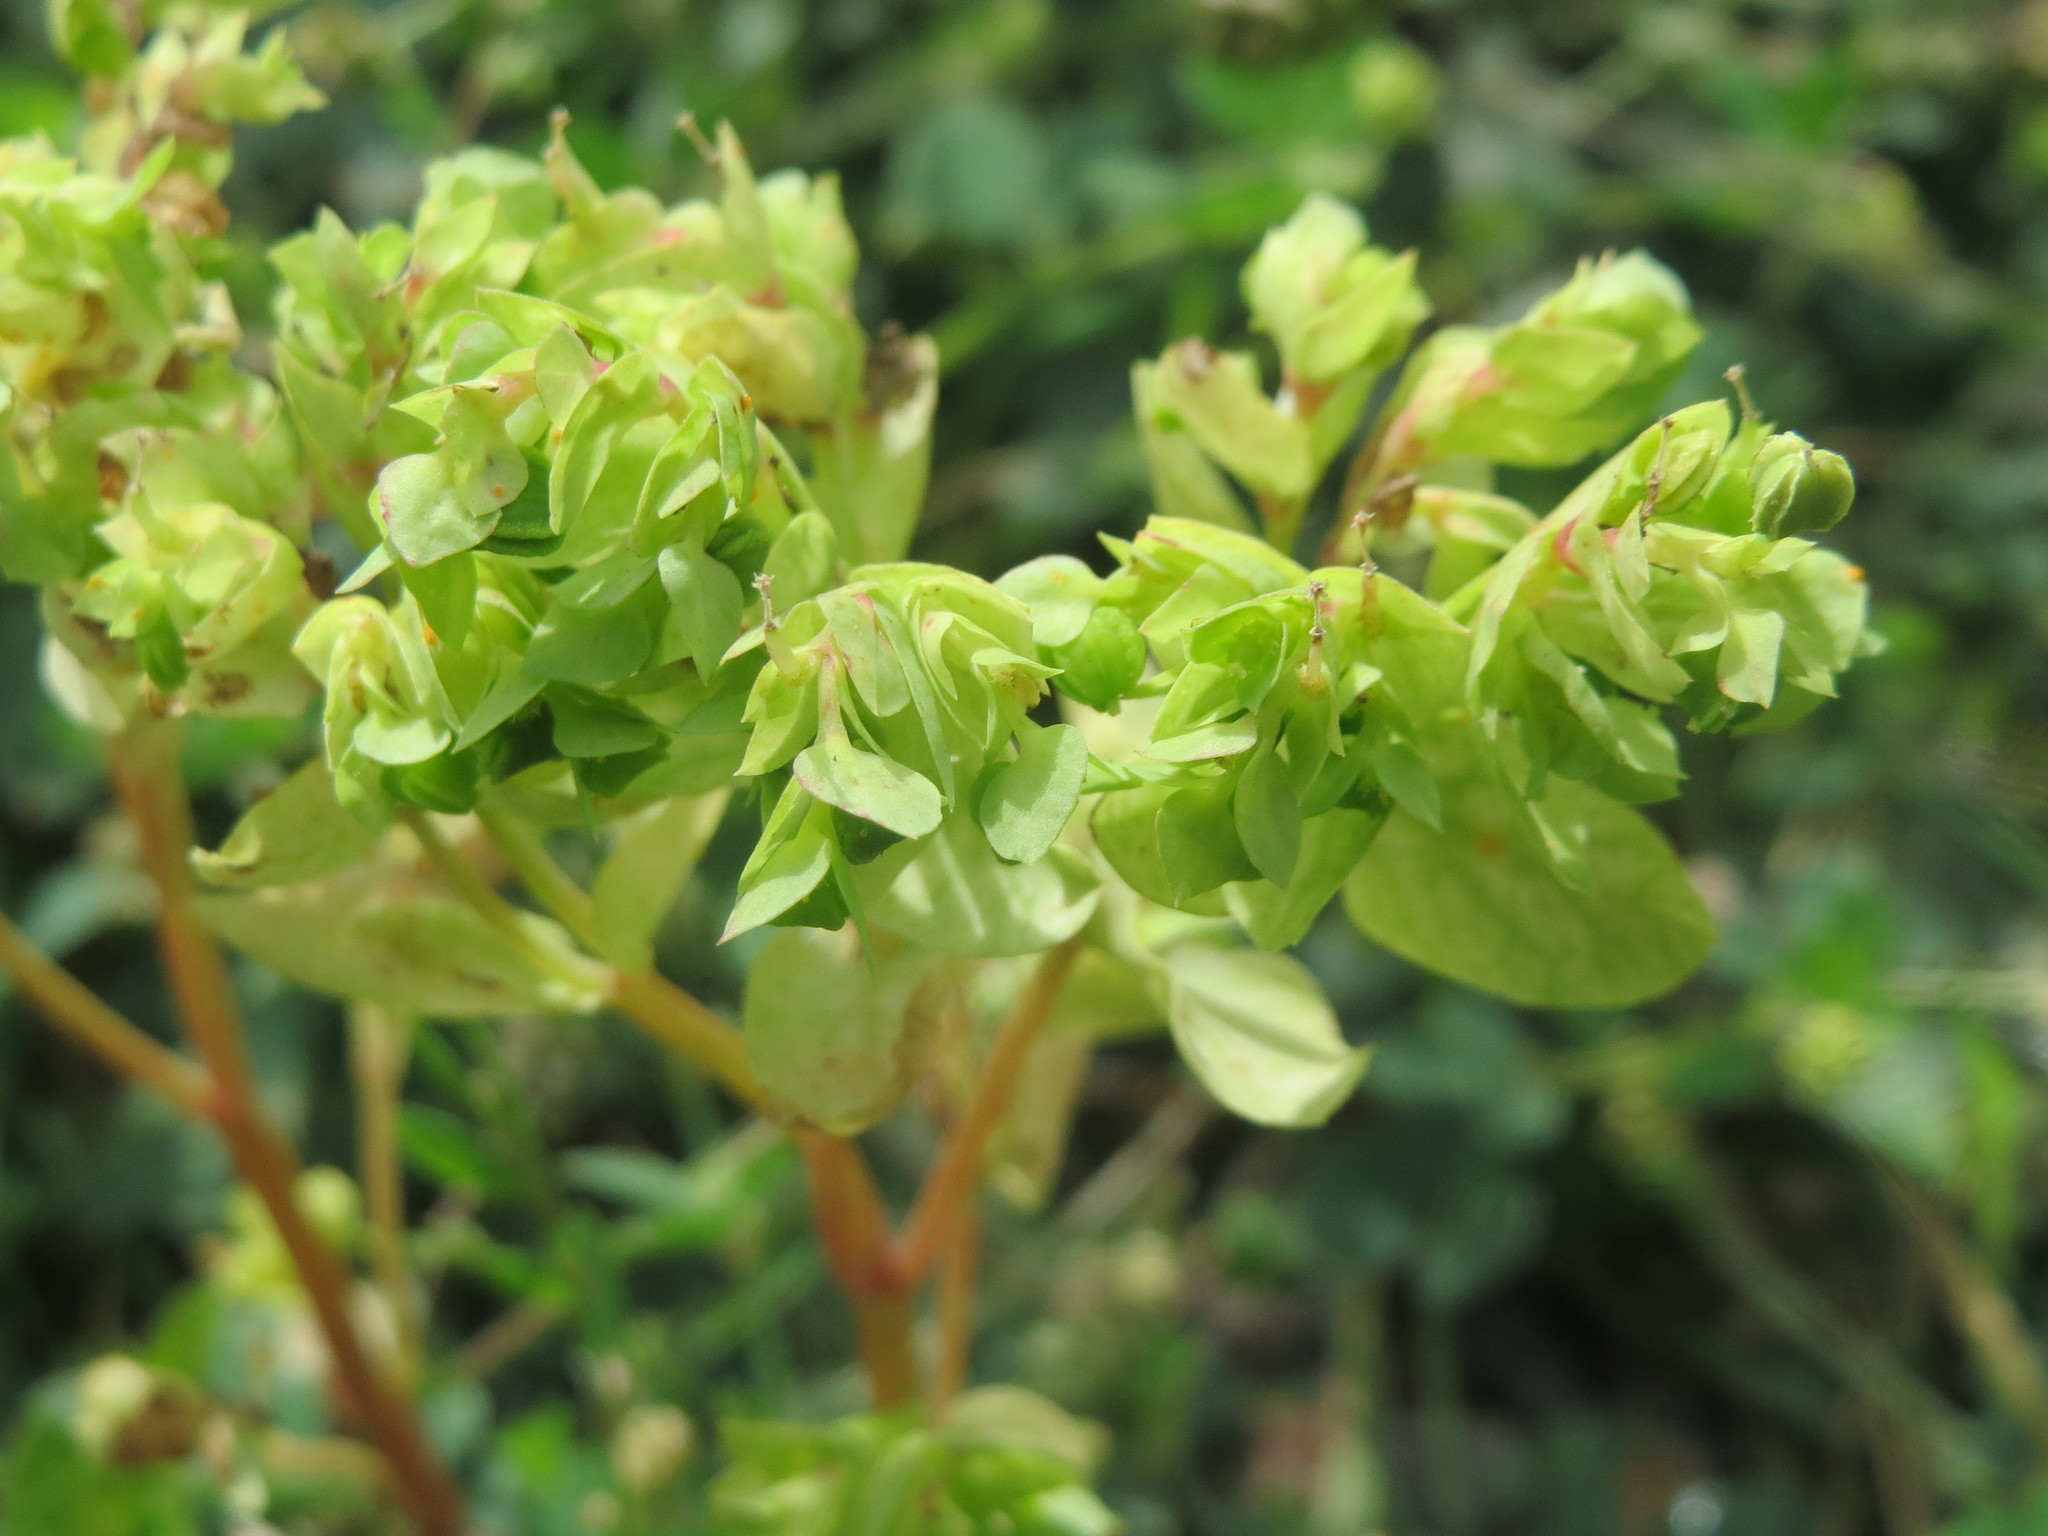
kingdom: Plantae
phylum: Tracheophyta
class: Magnoliopsida
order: Malpighiales
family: Euphorbiaceae
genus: Euphorbia
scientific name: Euphorbia peplus
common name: Petty spurge
